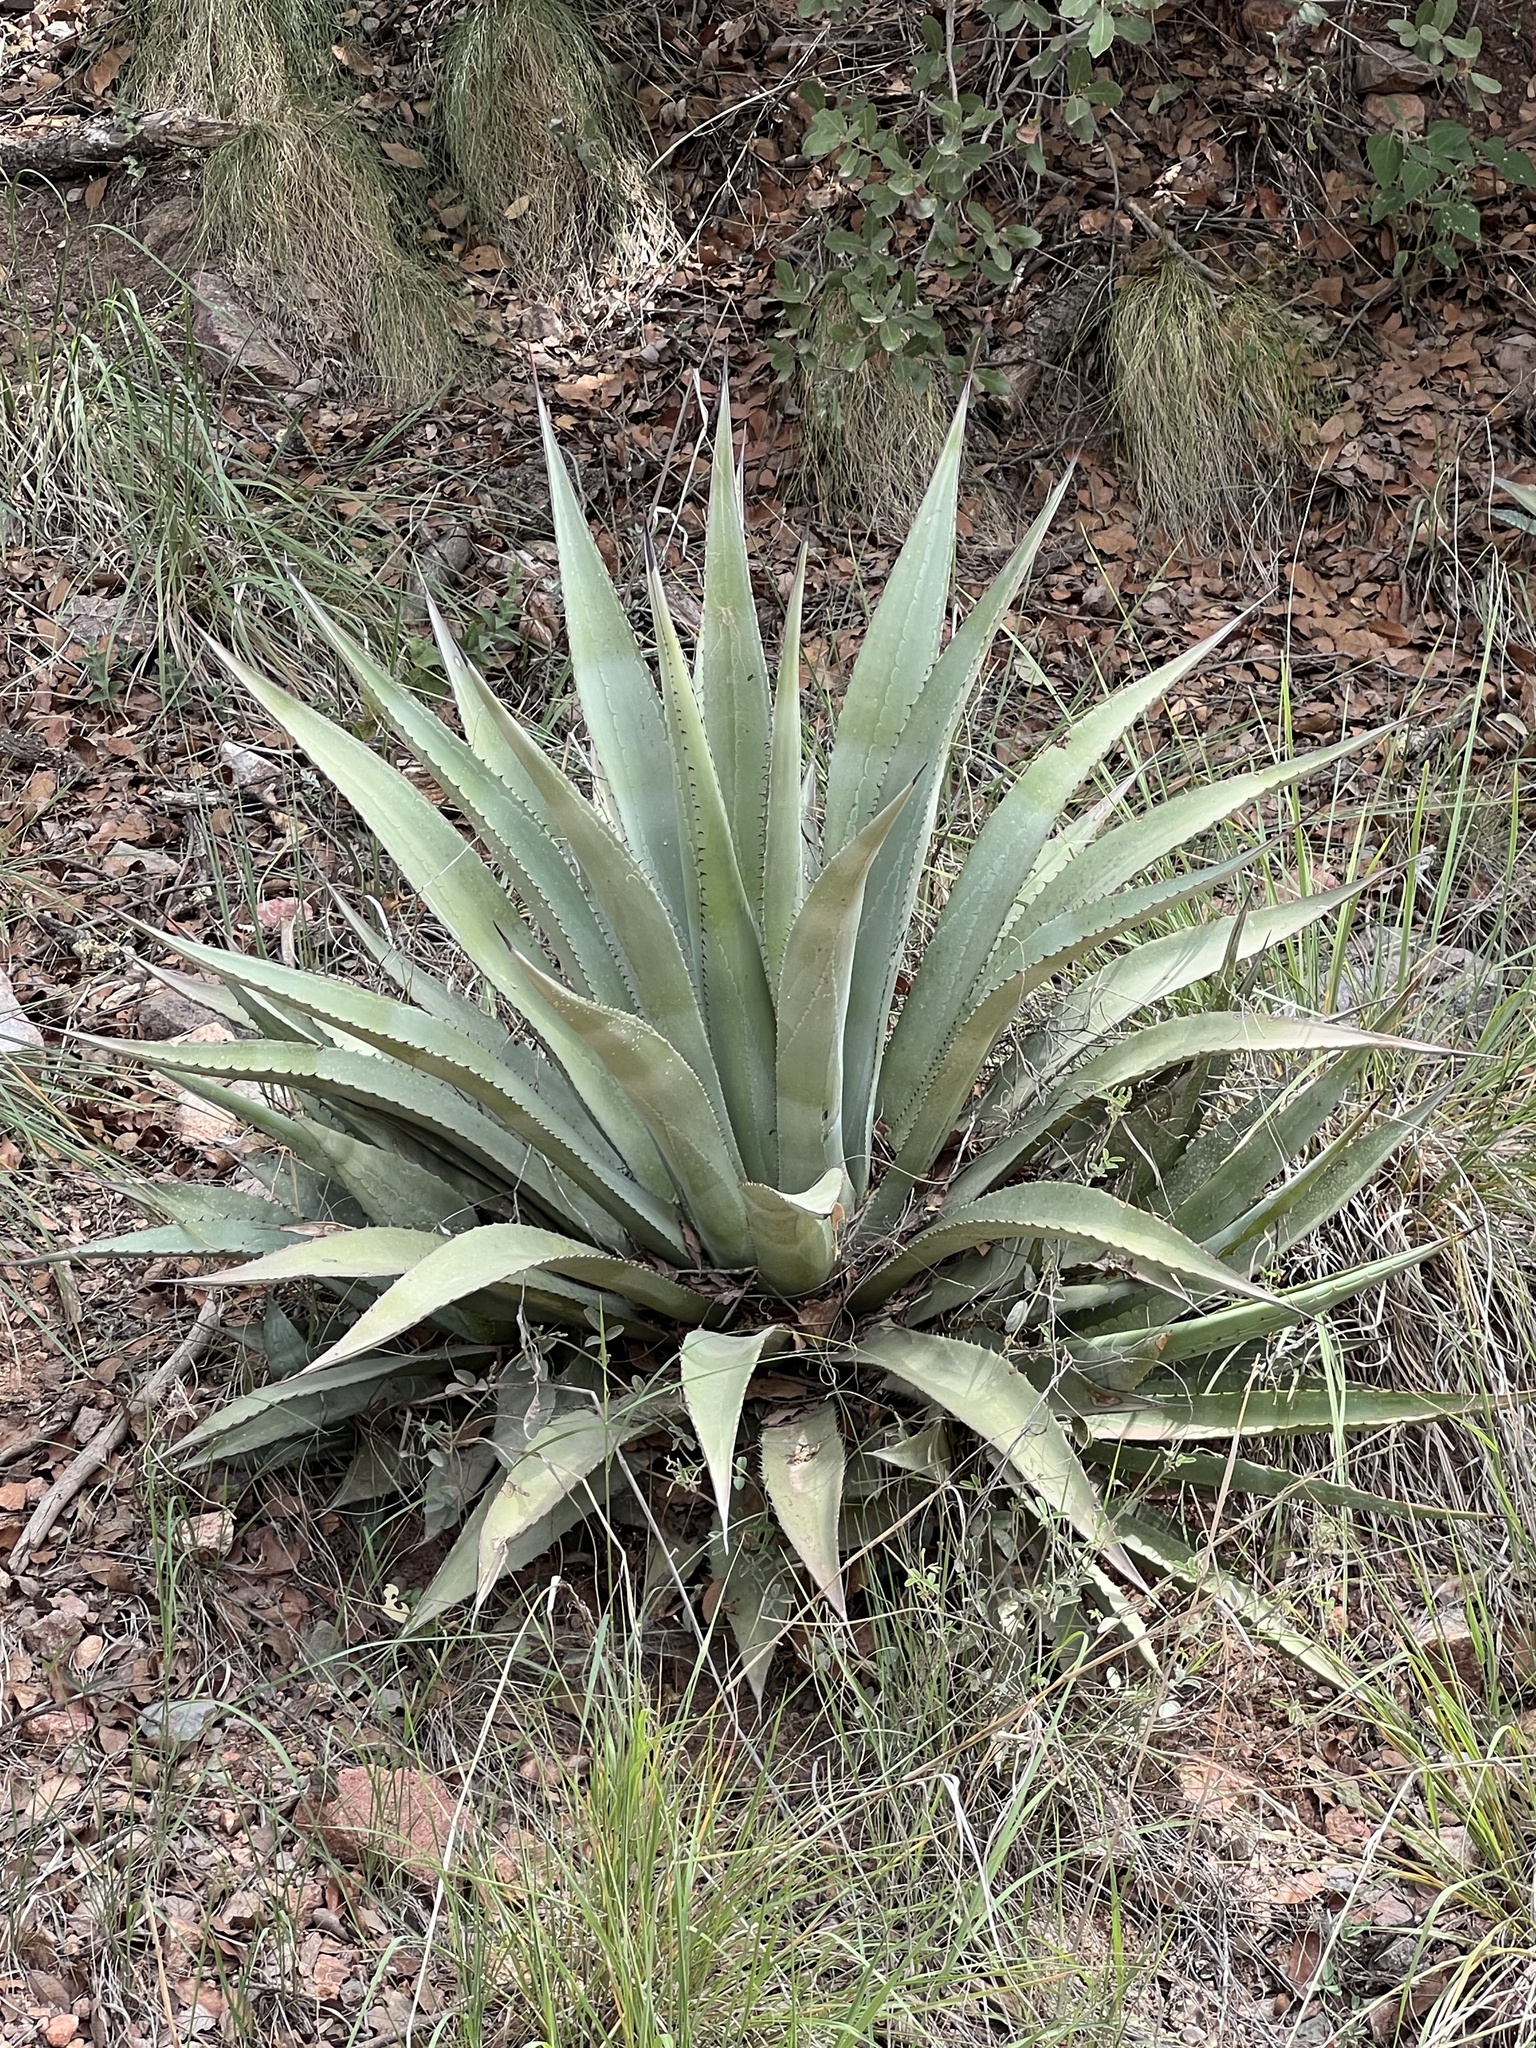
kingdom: Plantae
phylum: Tracheophyta
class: Liliopsida
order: Asparagales
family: Asparagaceae
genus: Agave
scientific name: Agave palmeri
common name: Palmer agave
